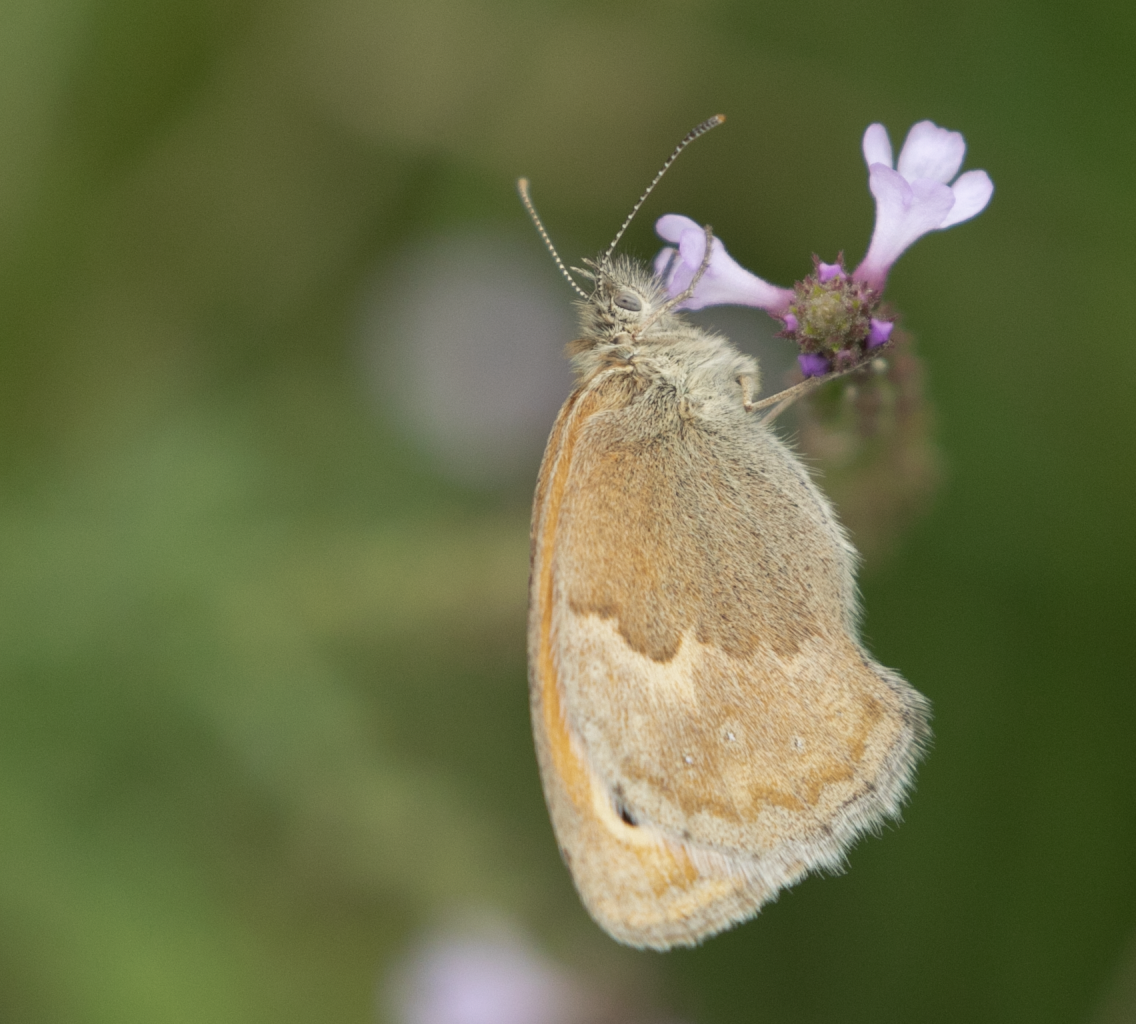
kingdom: Animalia
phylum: Arthropoda
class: Insecta
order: Lepidoptera
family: Nymphalidae
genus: Coenonympha
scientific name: Coenonympha pamphilus
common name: Small heath
